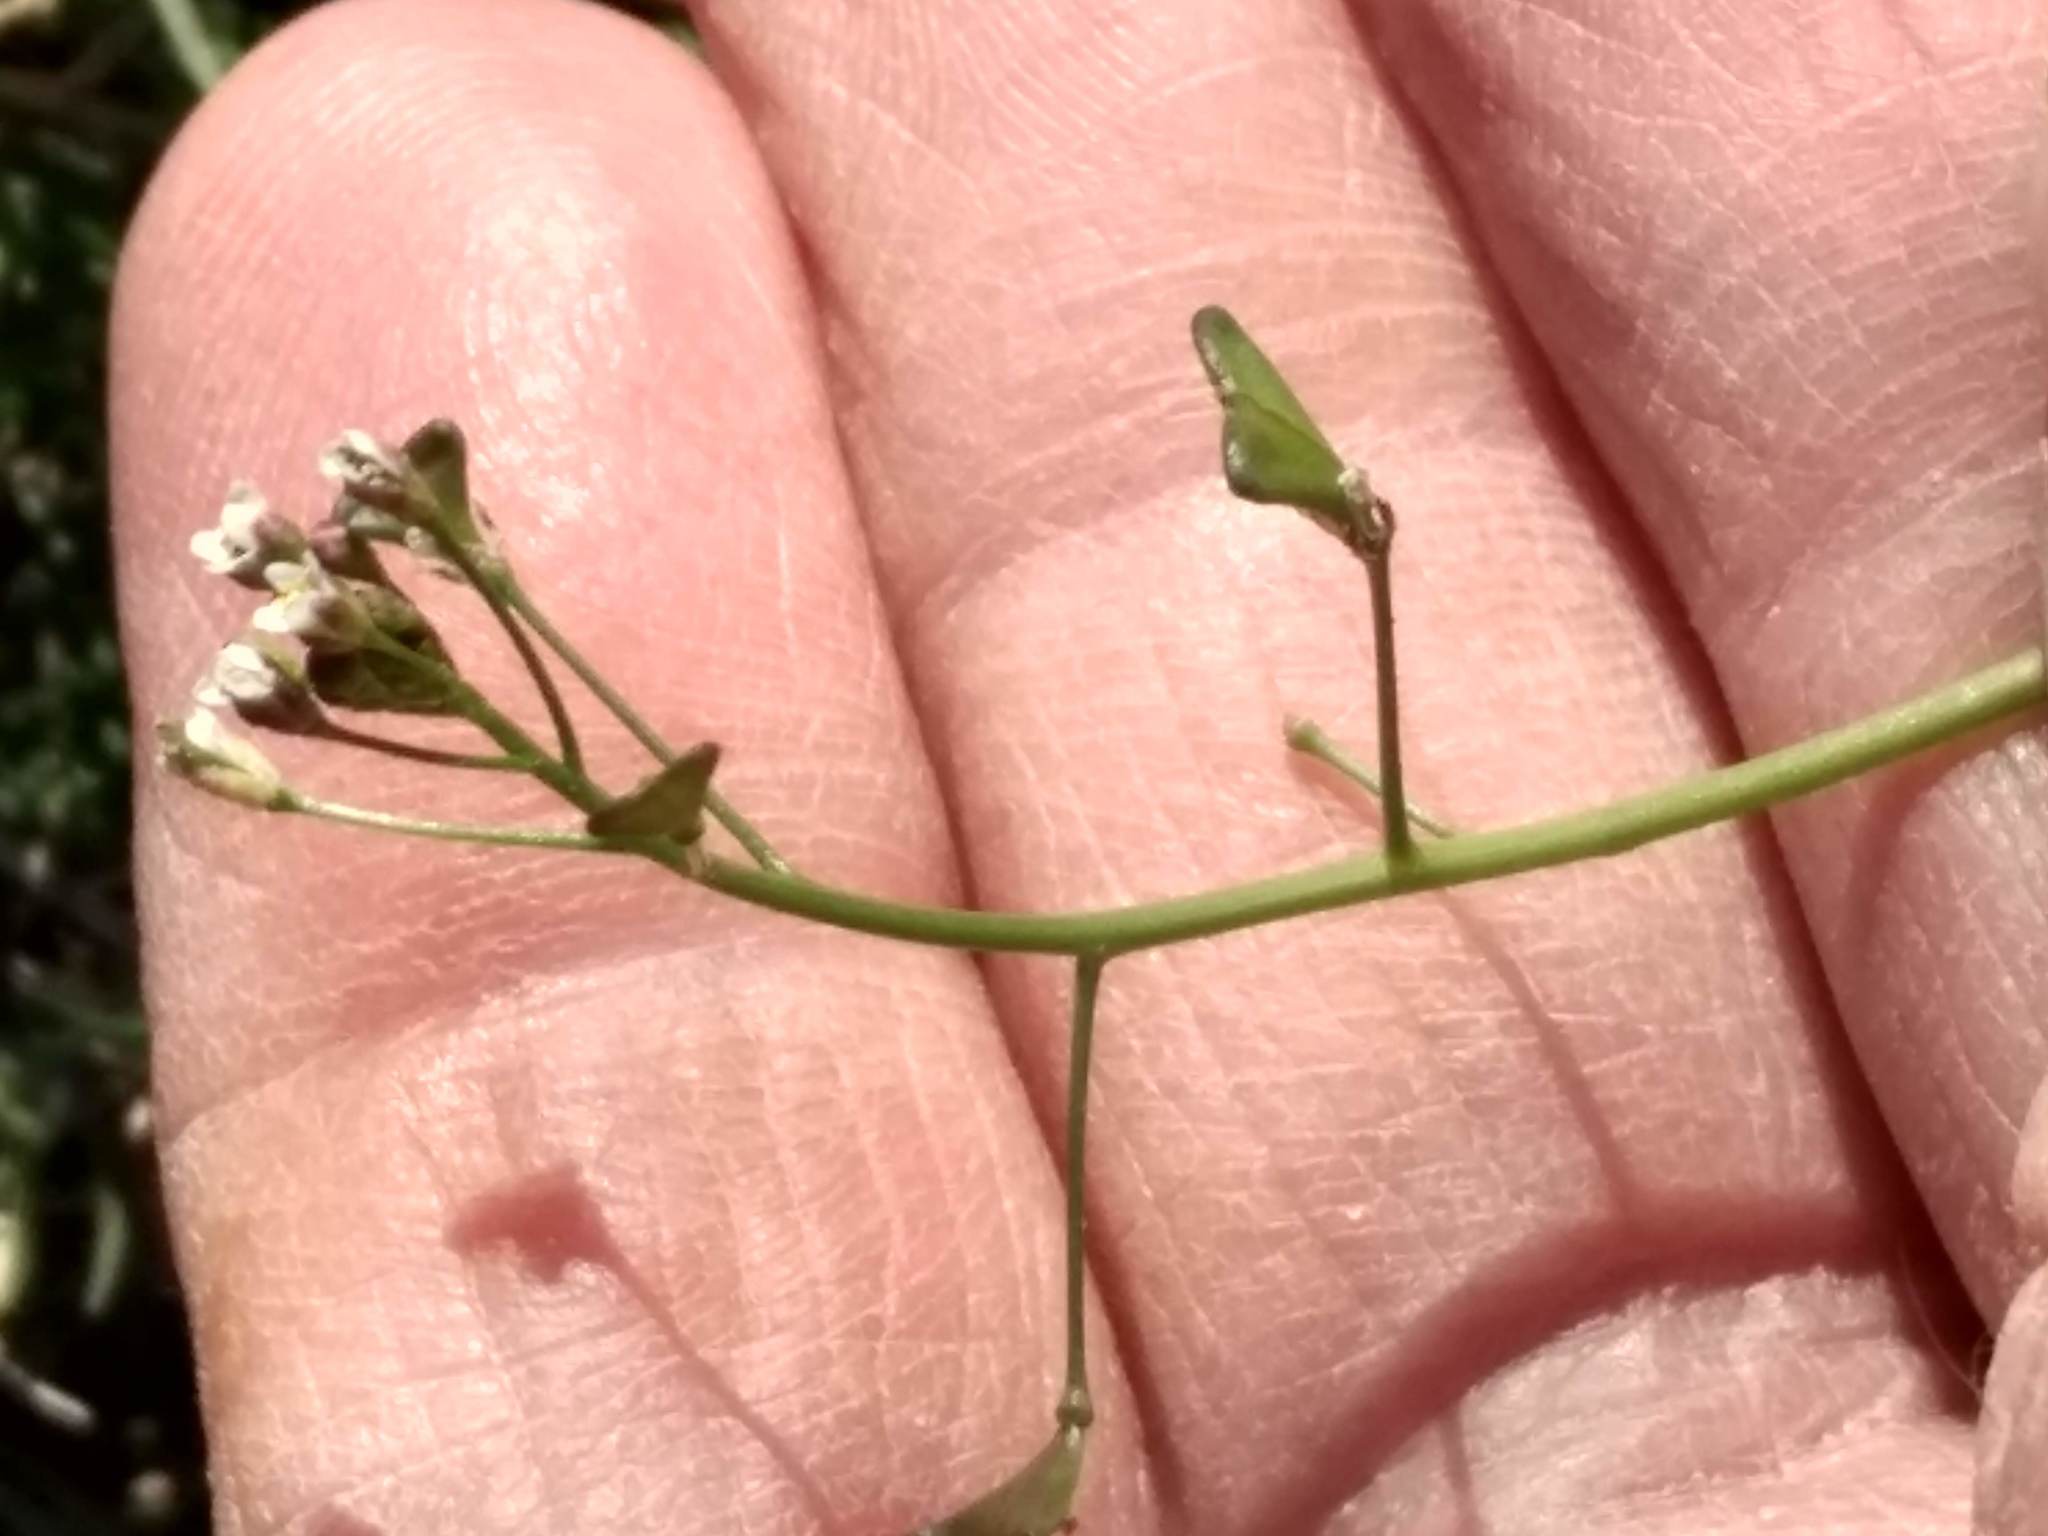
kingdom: Plantae
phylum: Tracheophyta
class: Magnoliopsida
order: Brassicales
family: Brassicaceae
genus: Capsella
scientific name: Capsella bursa-pastoris
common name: Shepherd's purse
